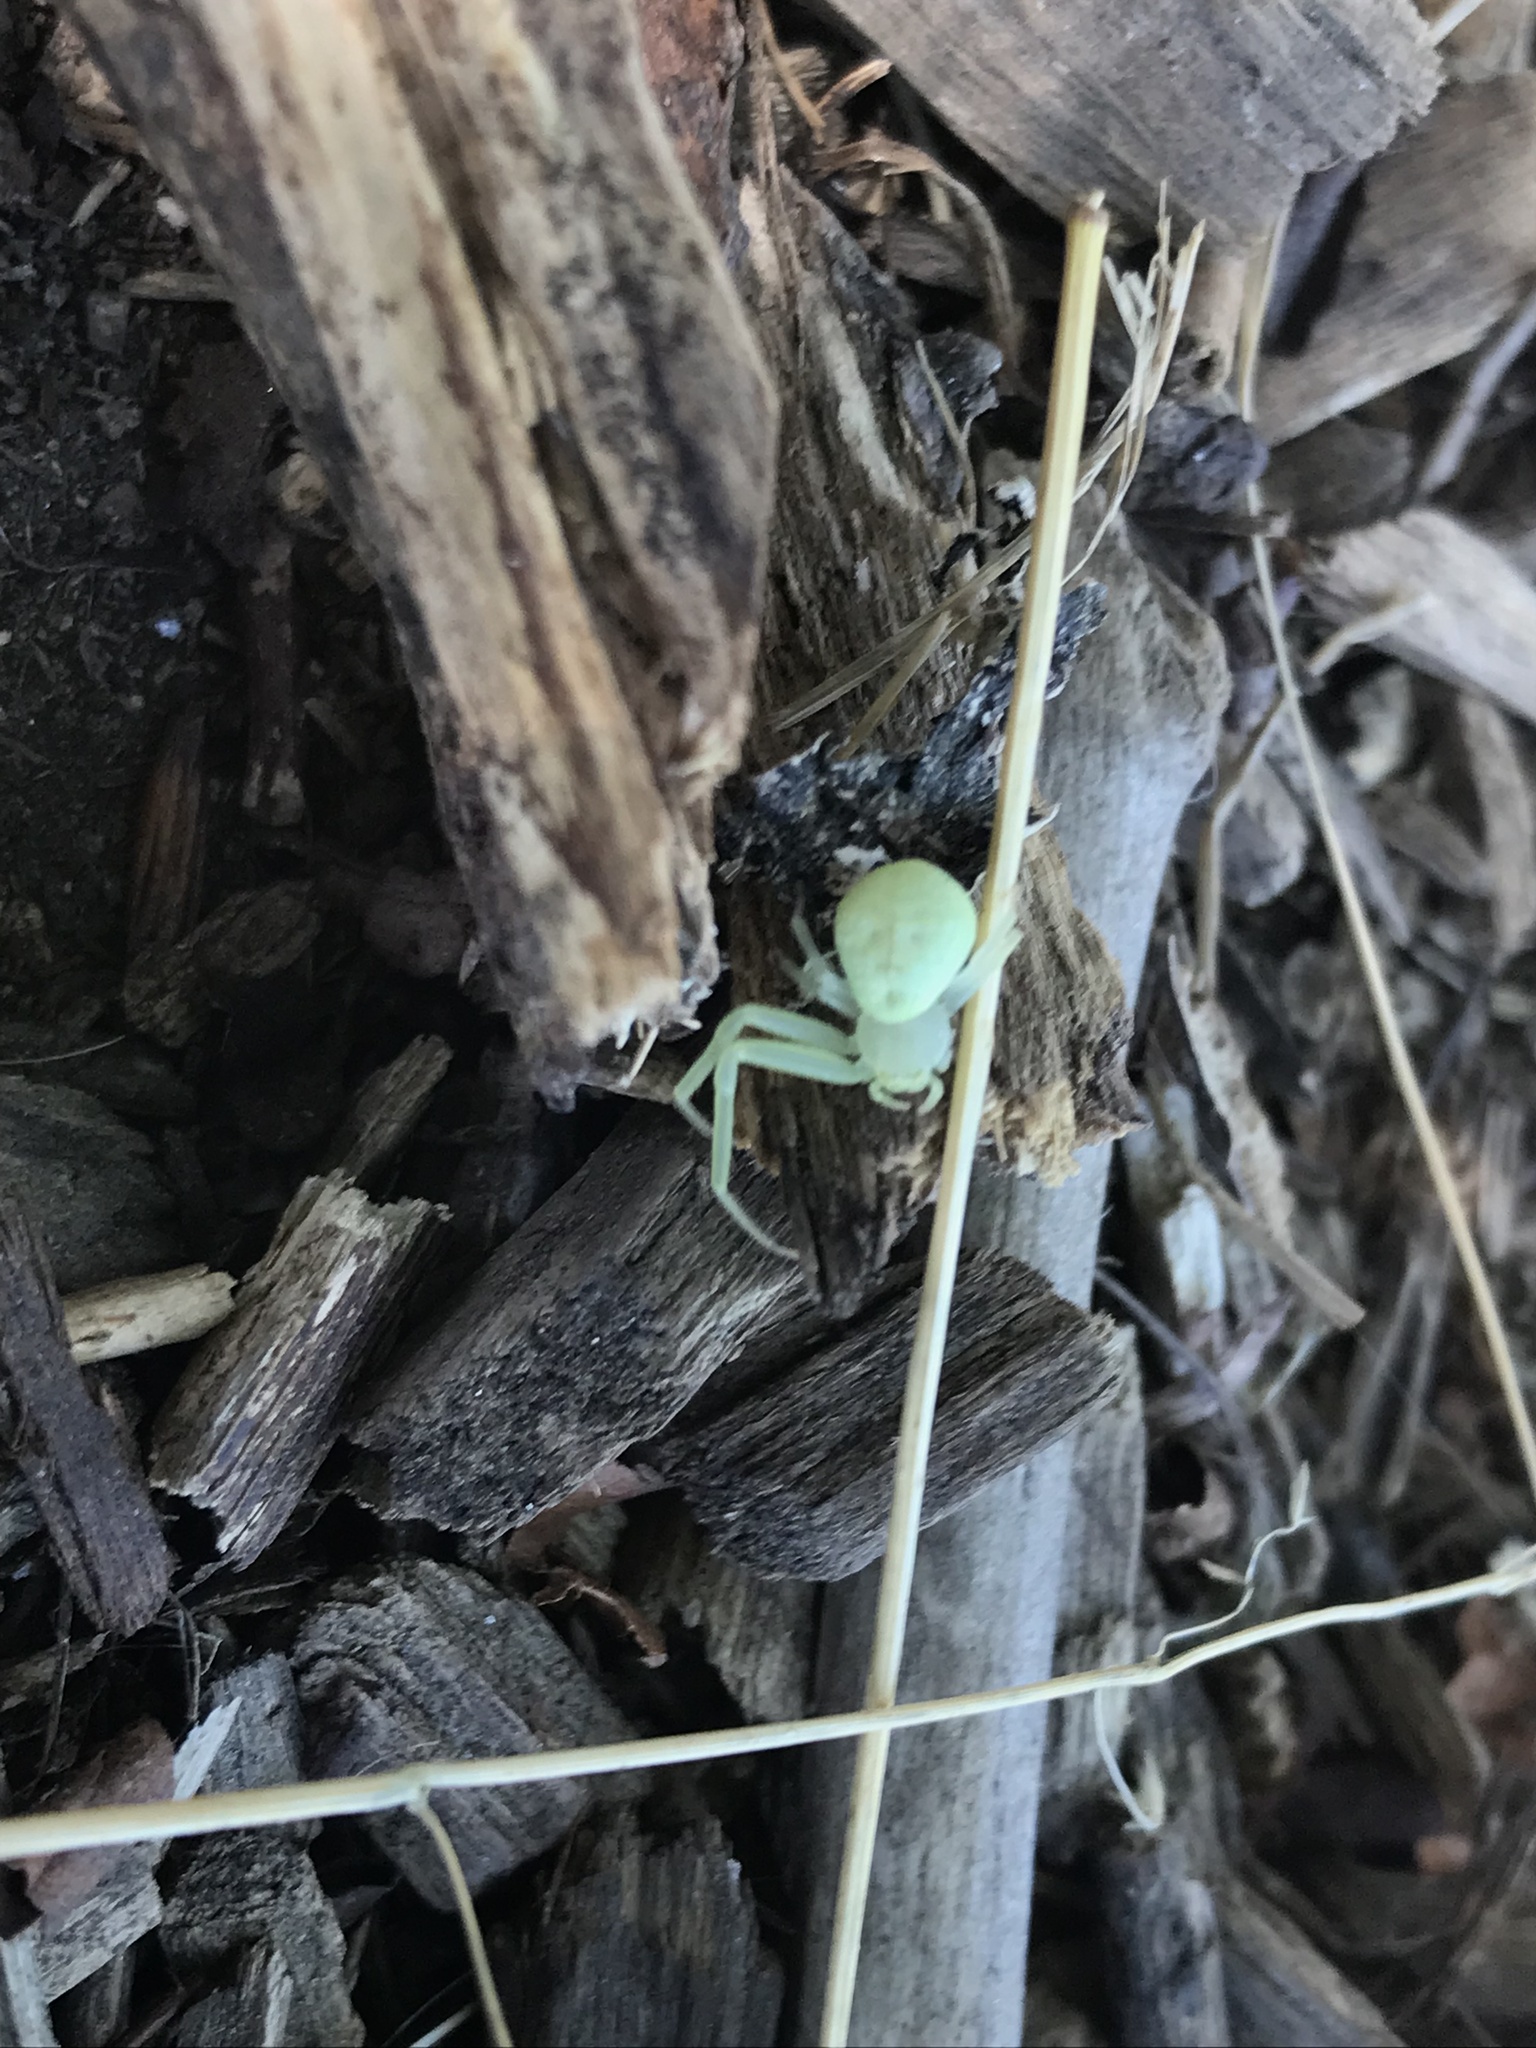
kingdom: Animalia
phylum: Arthropoda
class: Arachnida
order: Araneae
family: Thomisidae
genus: Misumessus
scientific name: Misumessus oblongus
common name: American green crab spider
